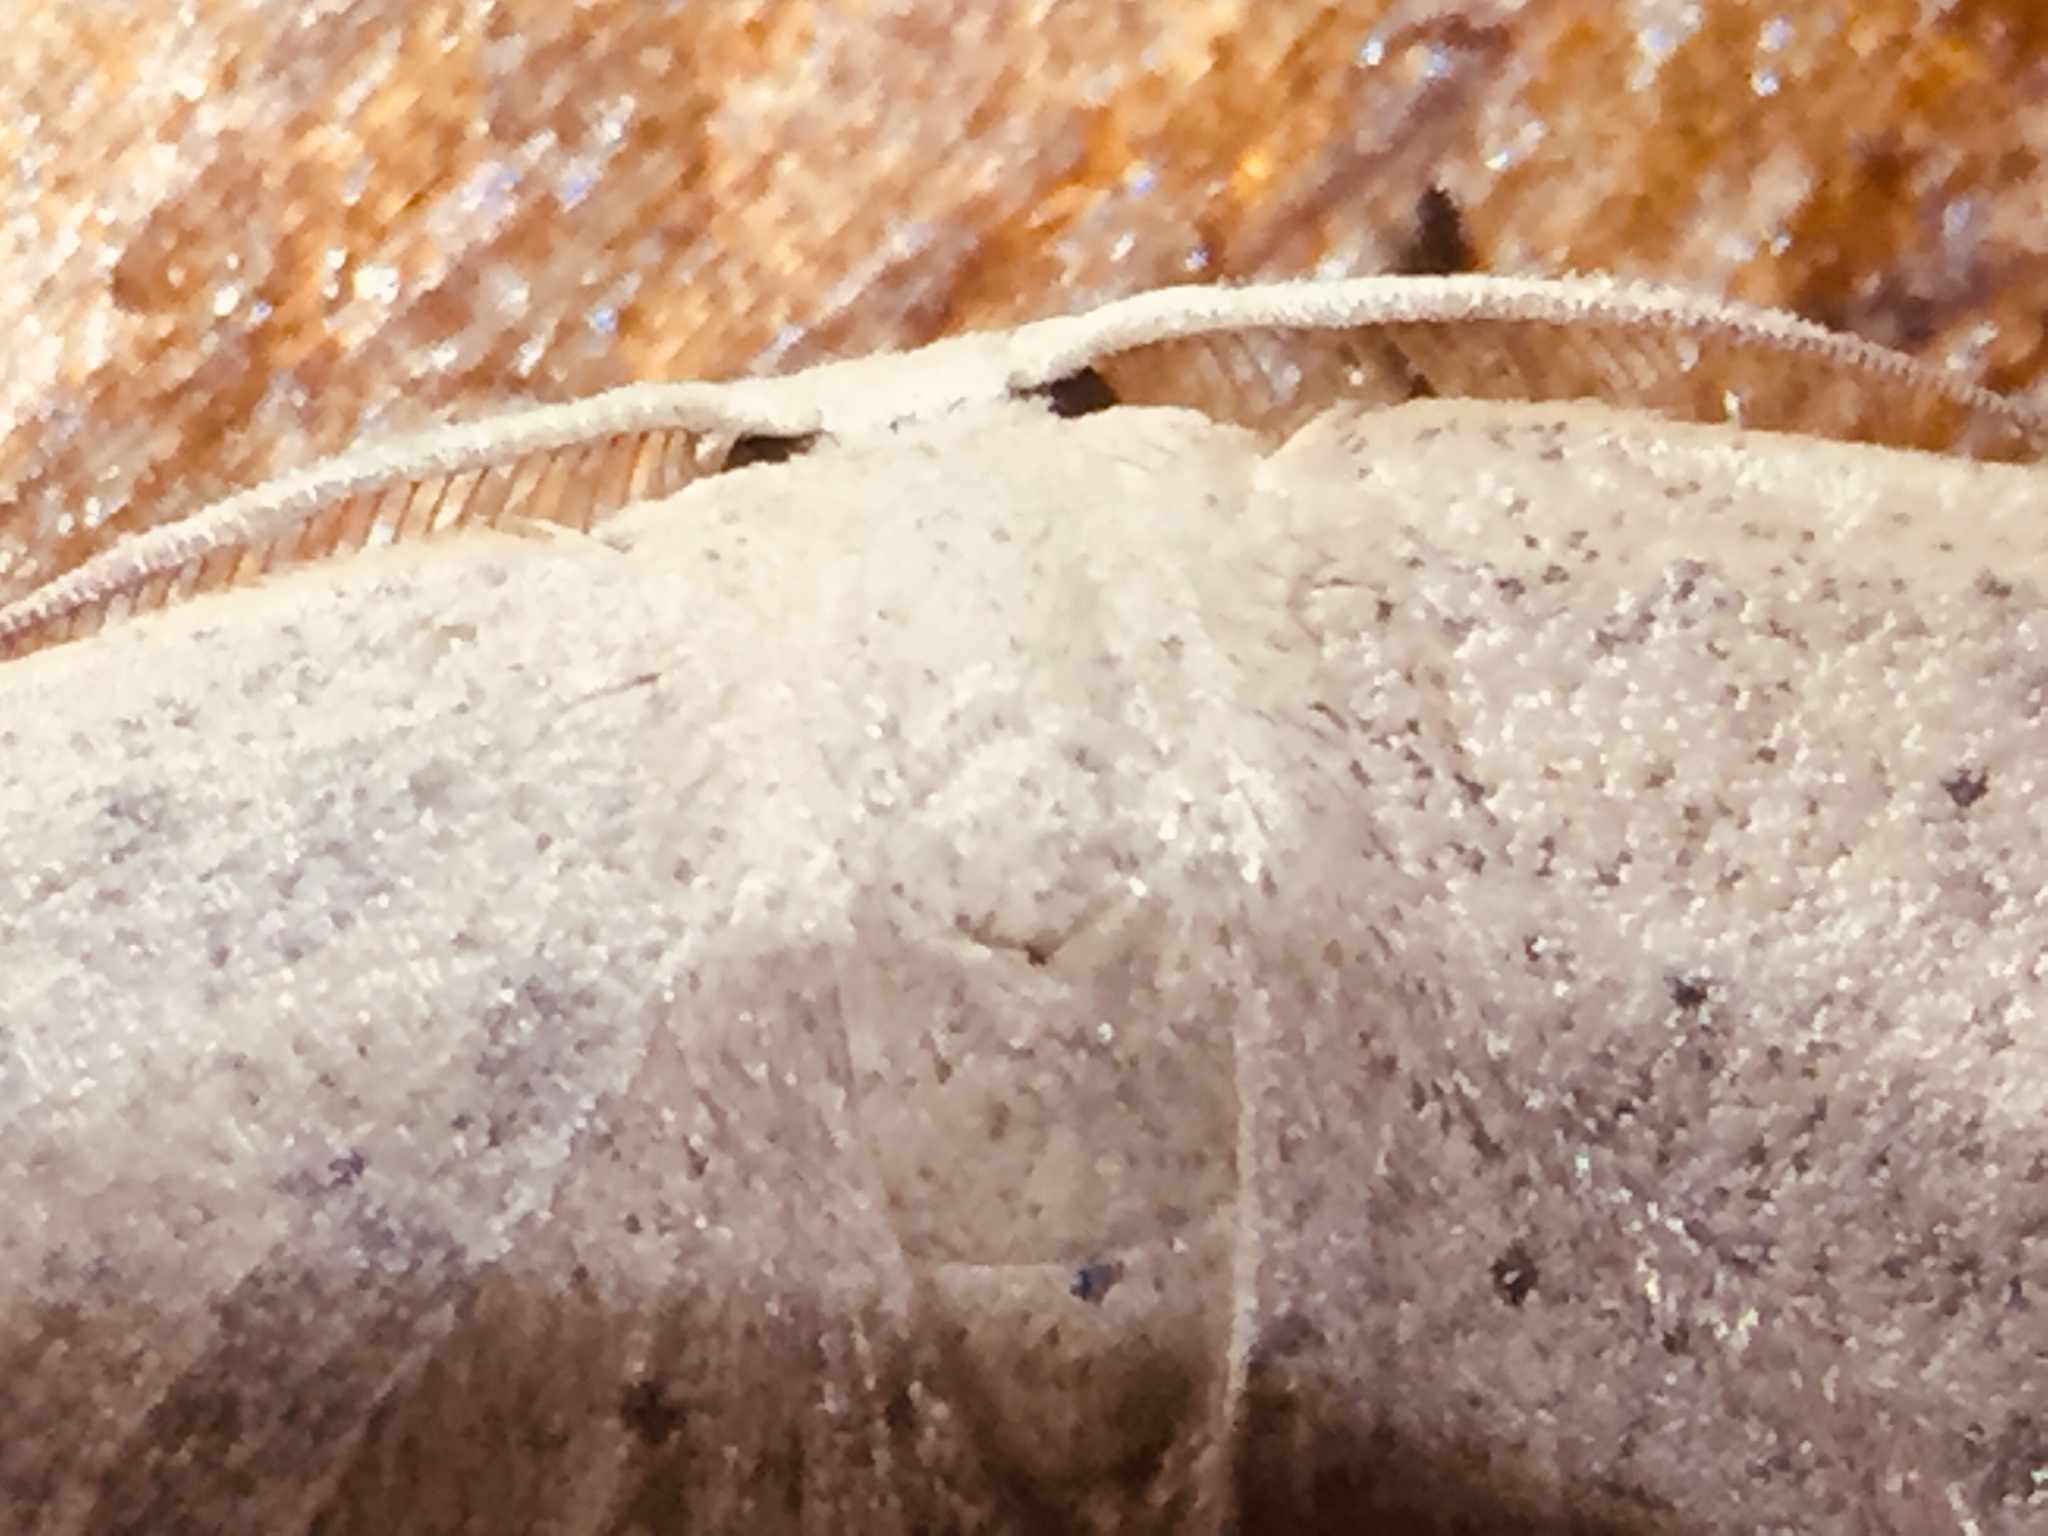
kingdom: Animalia
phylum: Arthropoda
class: Insecta
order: Lepidoptera
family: Geometridae
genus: Cyclophora
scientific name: Cyclophora obstataria
